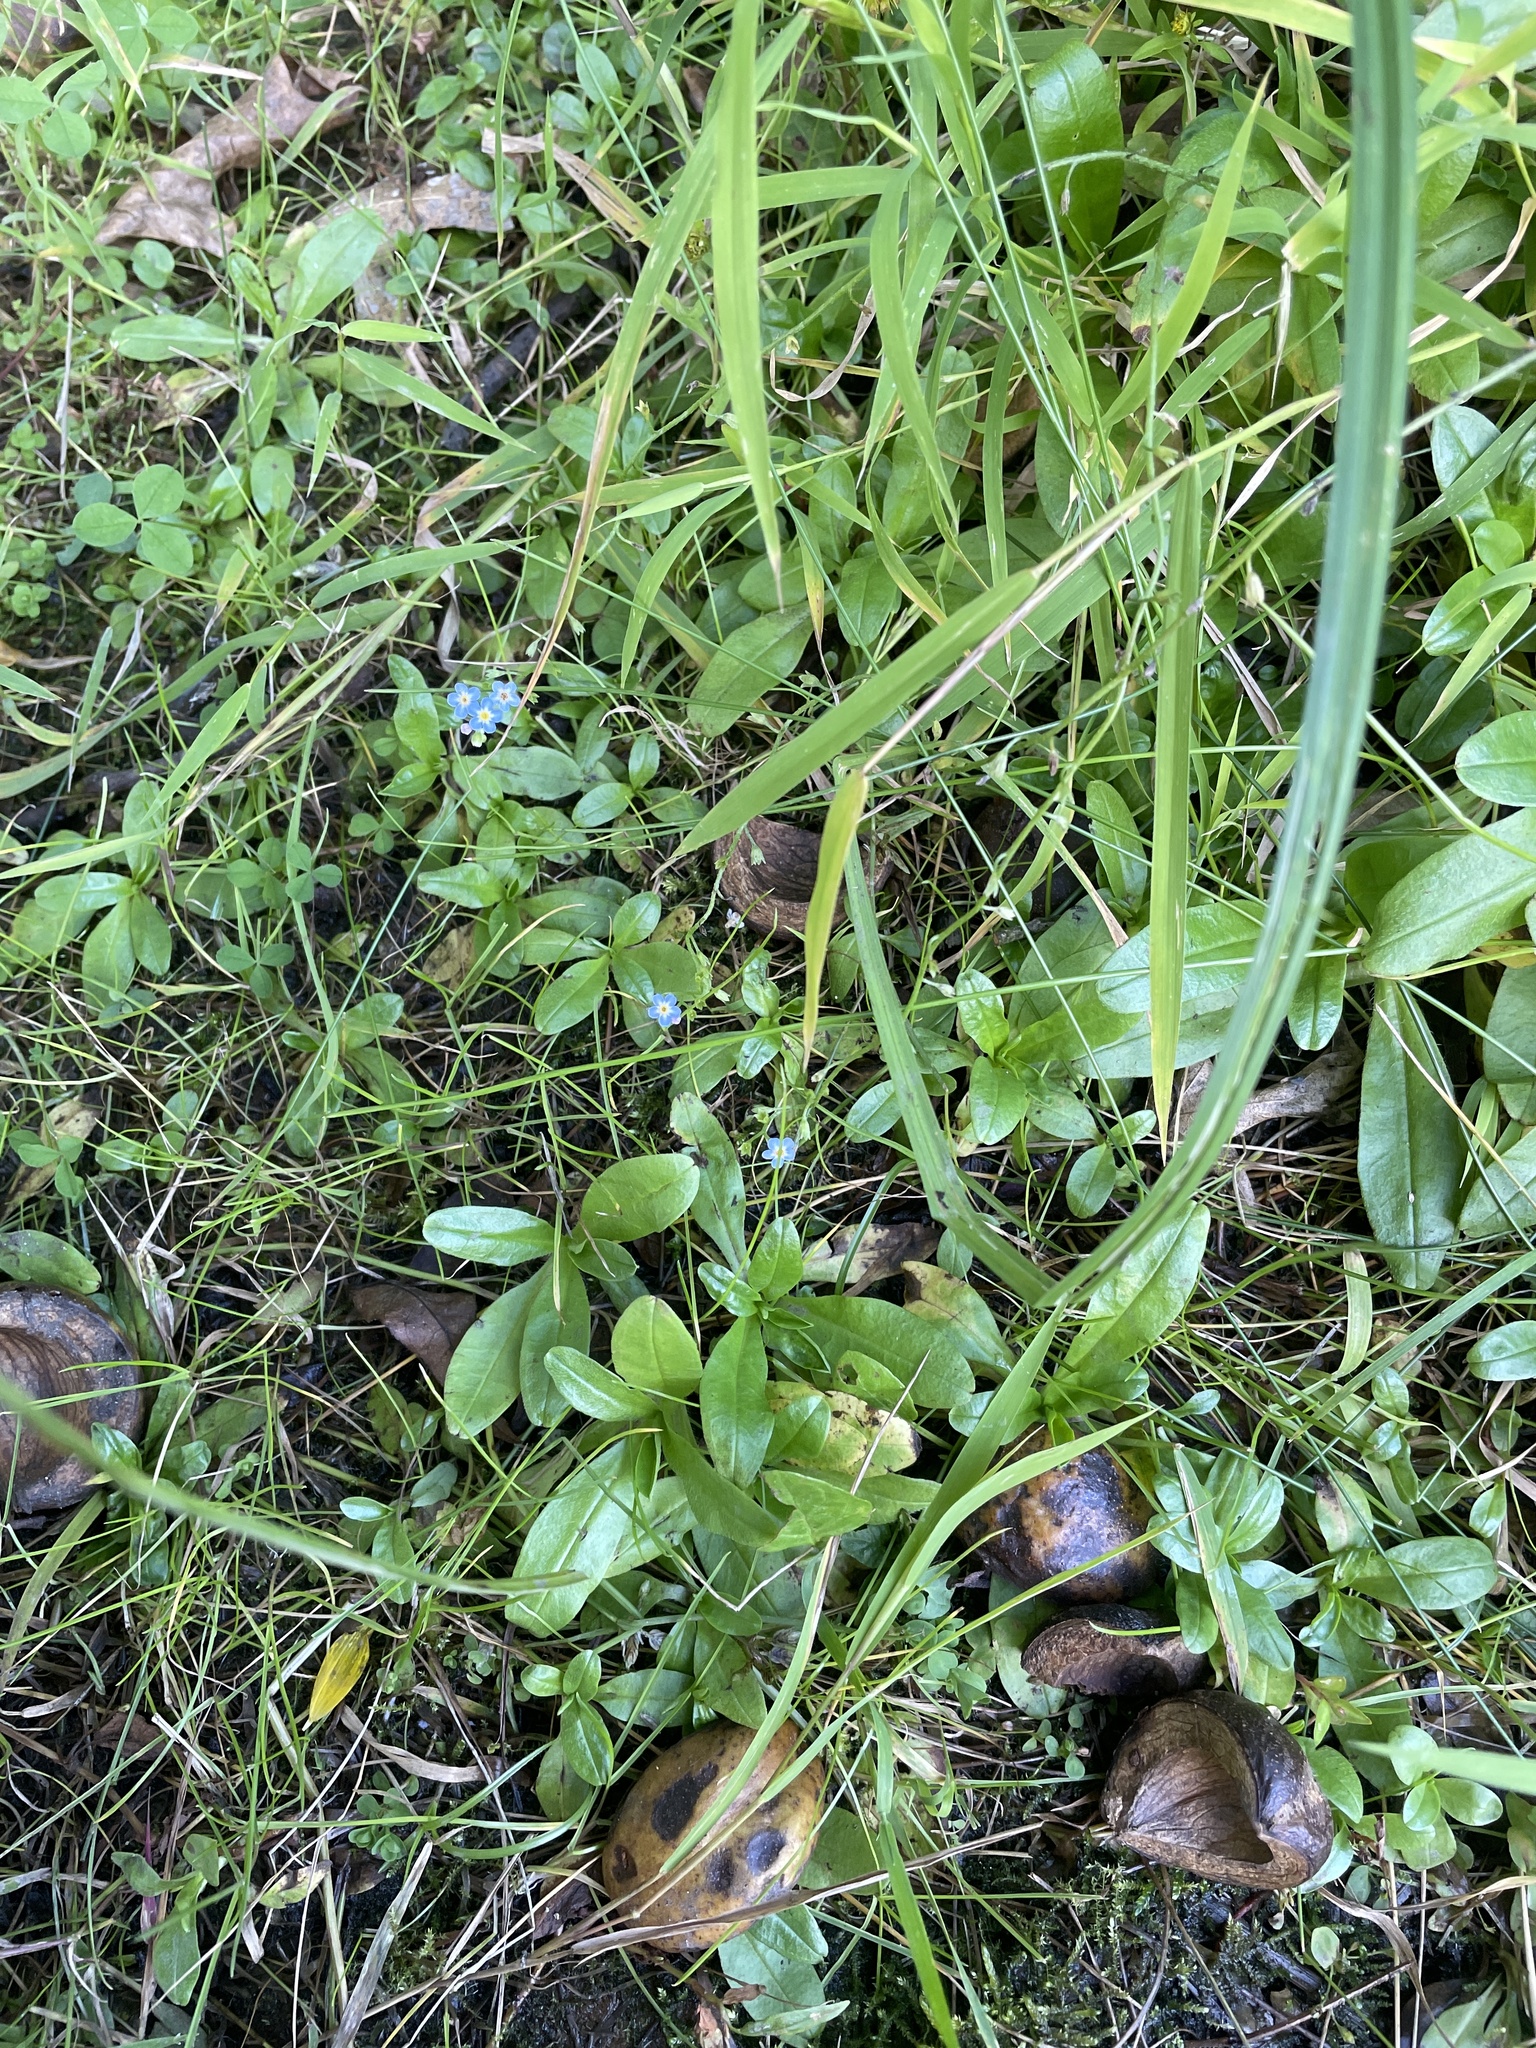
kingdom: Plantae
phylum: Tracheophyta
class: Magnoliopsida
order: Boraginales
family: Boraginaceae
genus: Myosotis
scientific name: Myosotis scorpioides
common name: Water forget-me-not
